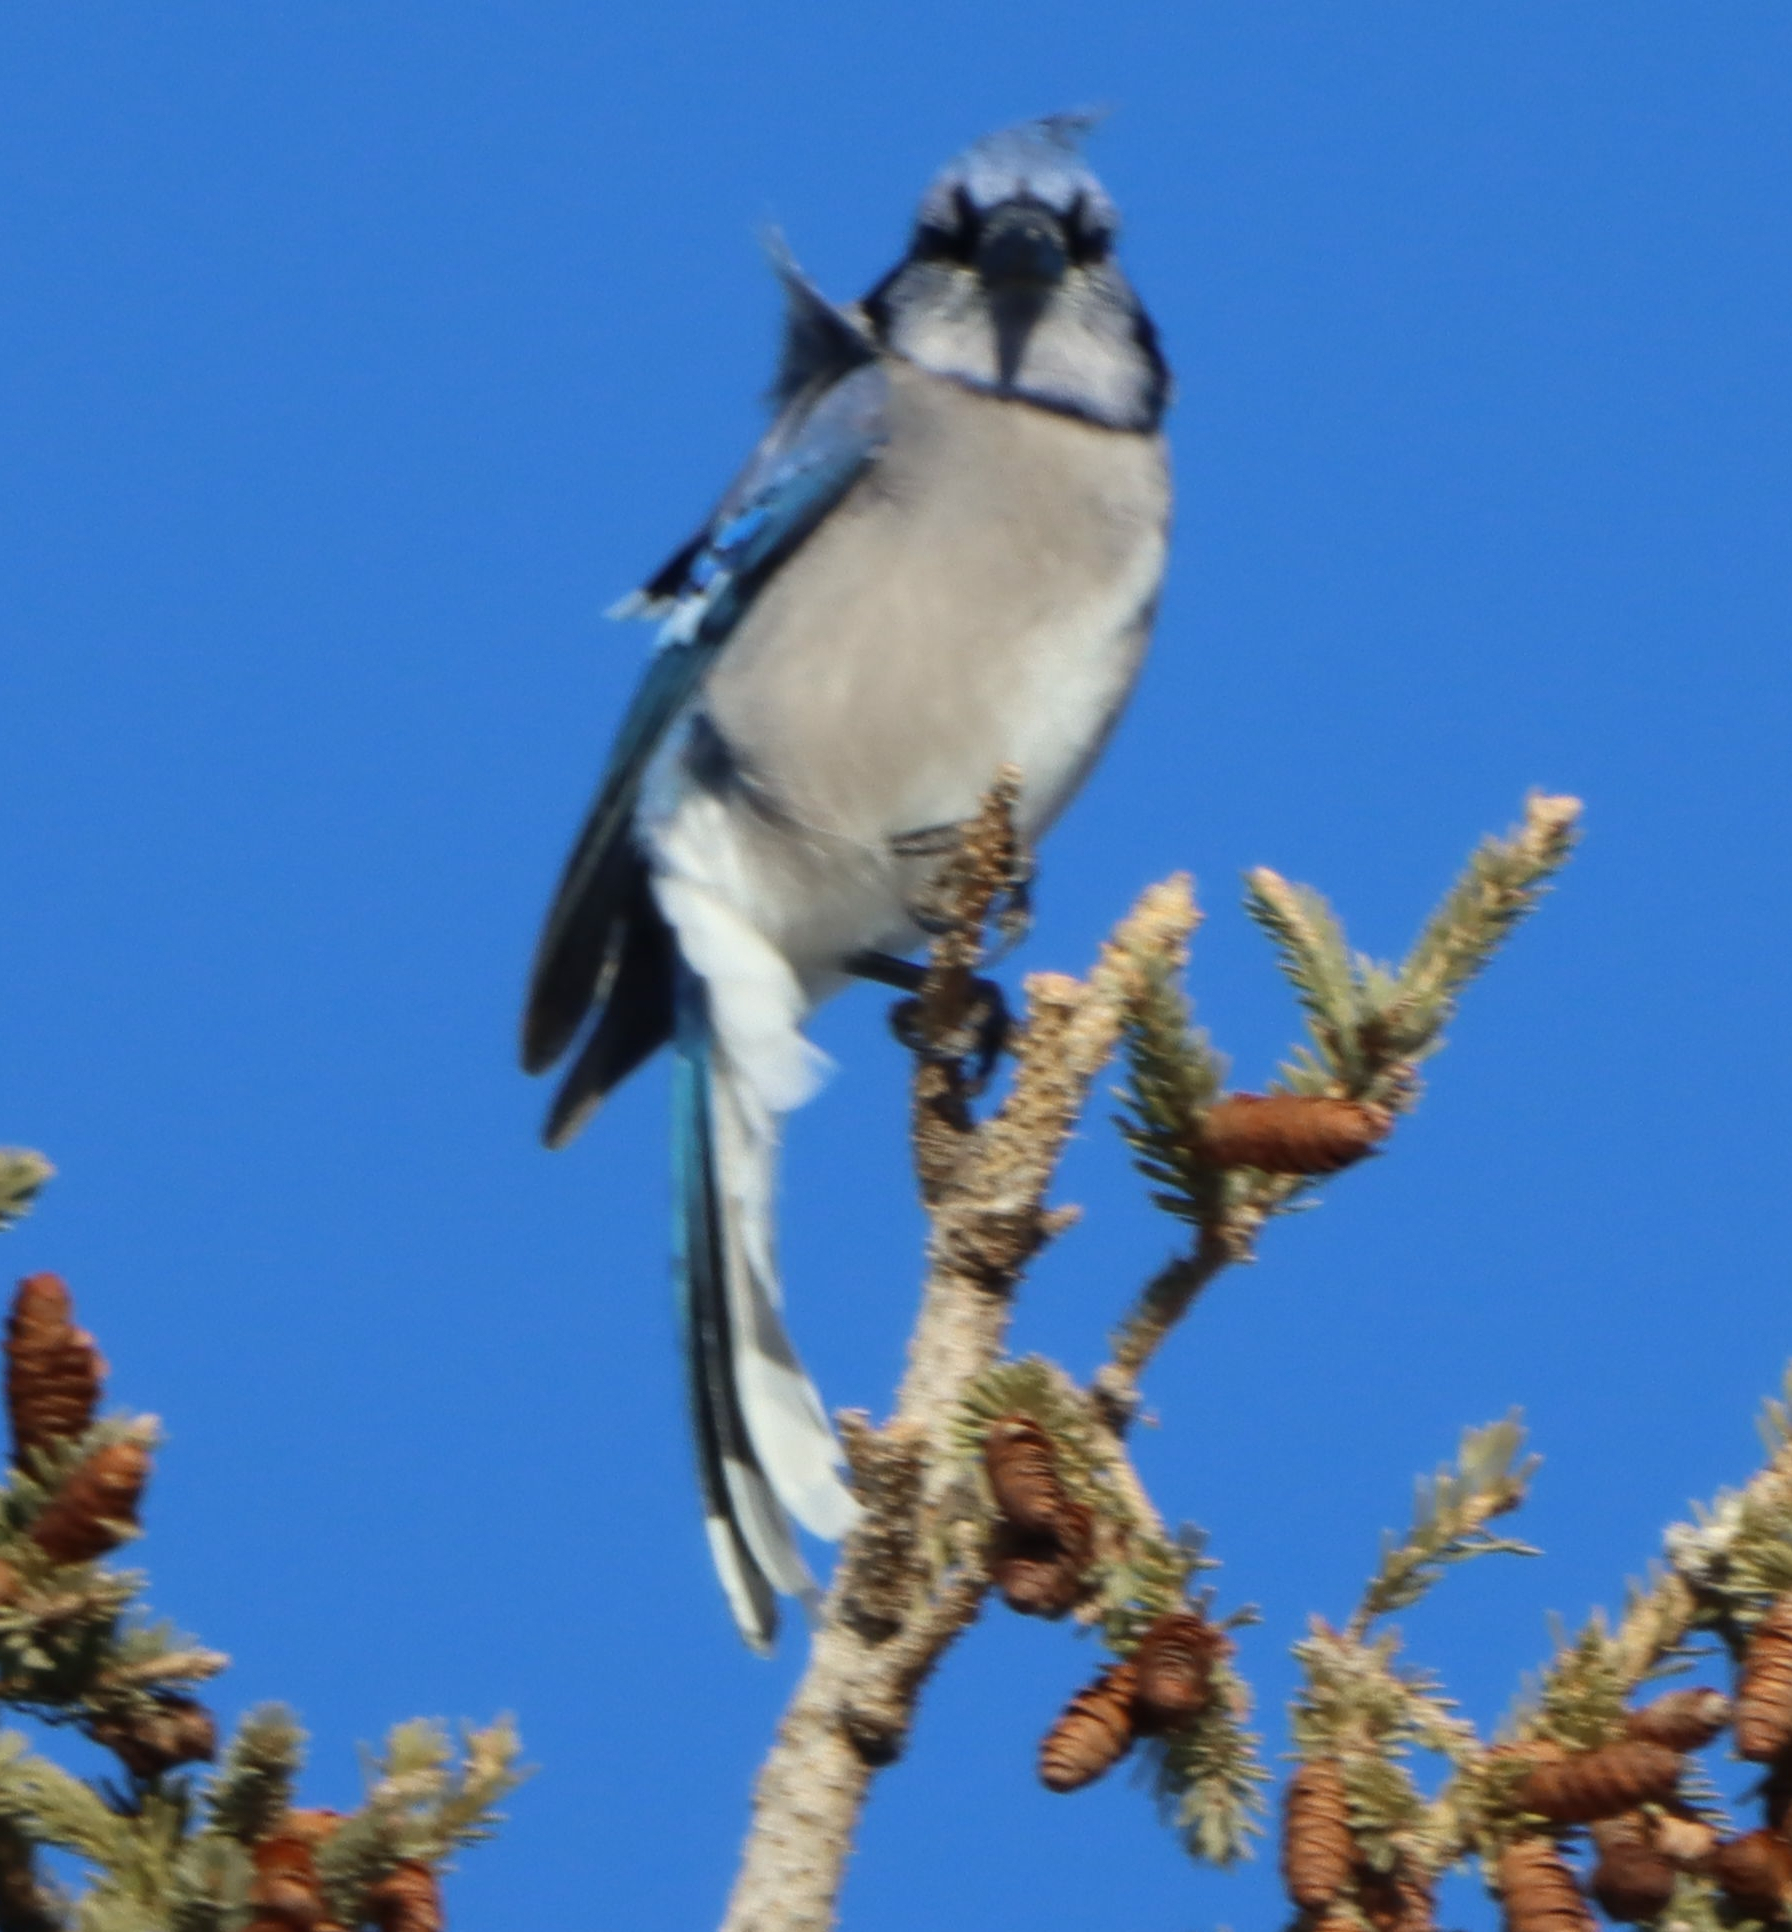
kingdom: Animalia
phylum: Chordata
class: Aves
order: Passeriformes
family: Corvidae
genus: Cyanocitta
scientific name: Cyanocitta cristata
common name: Blue jay
